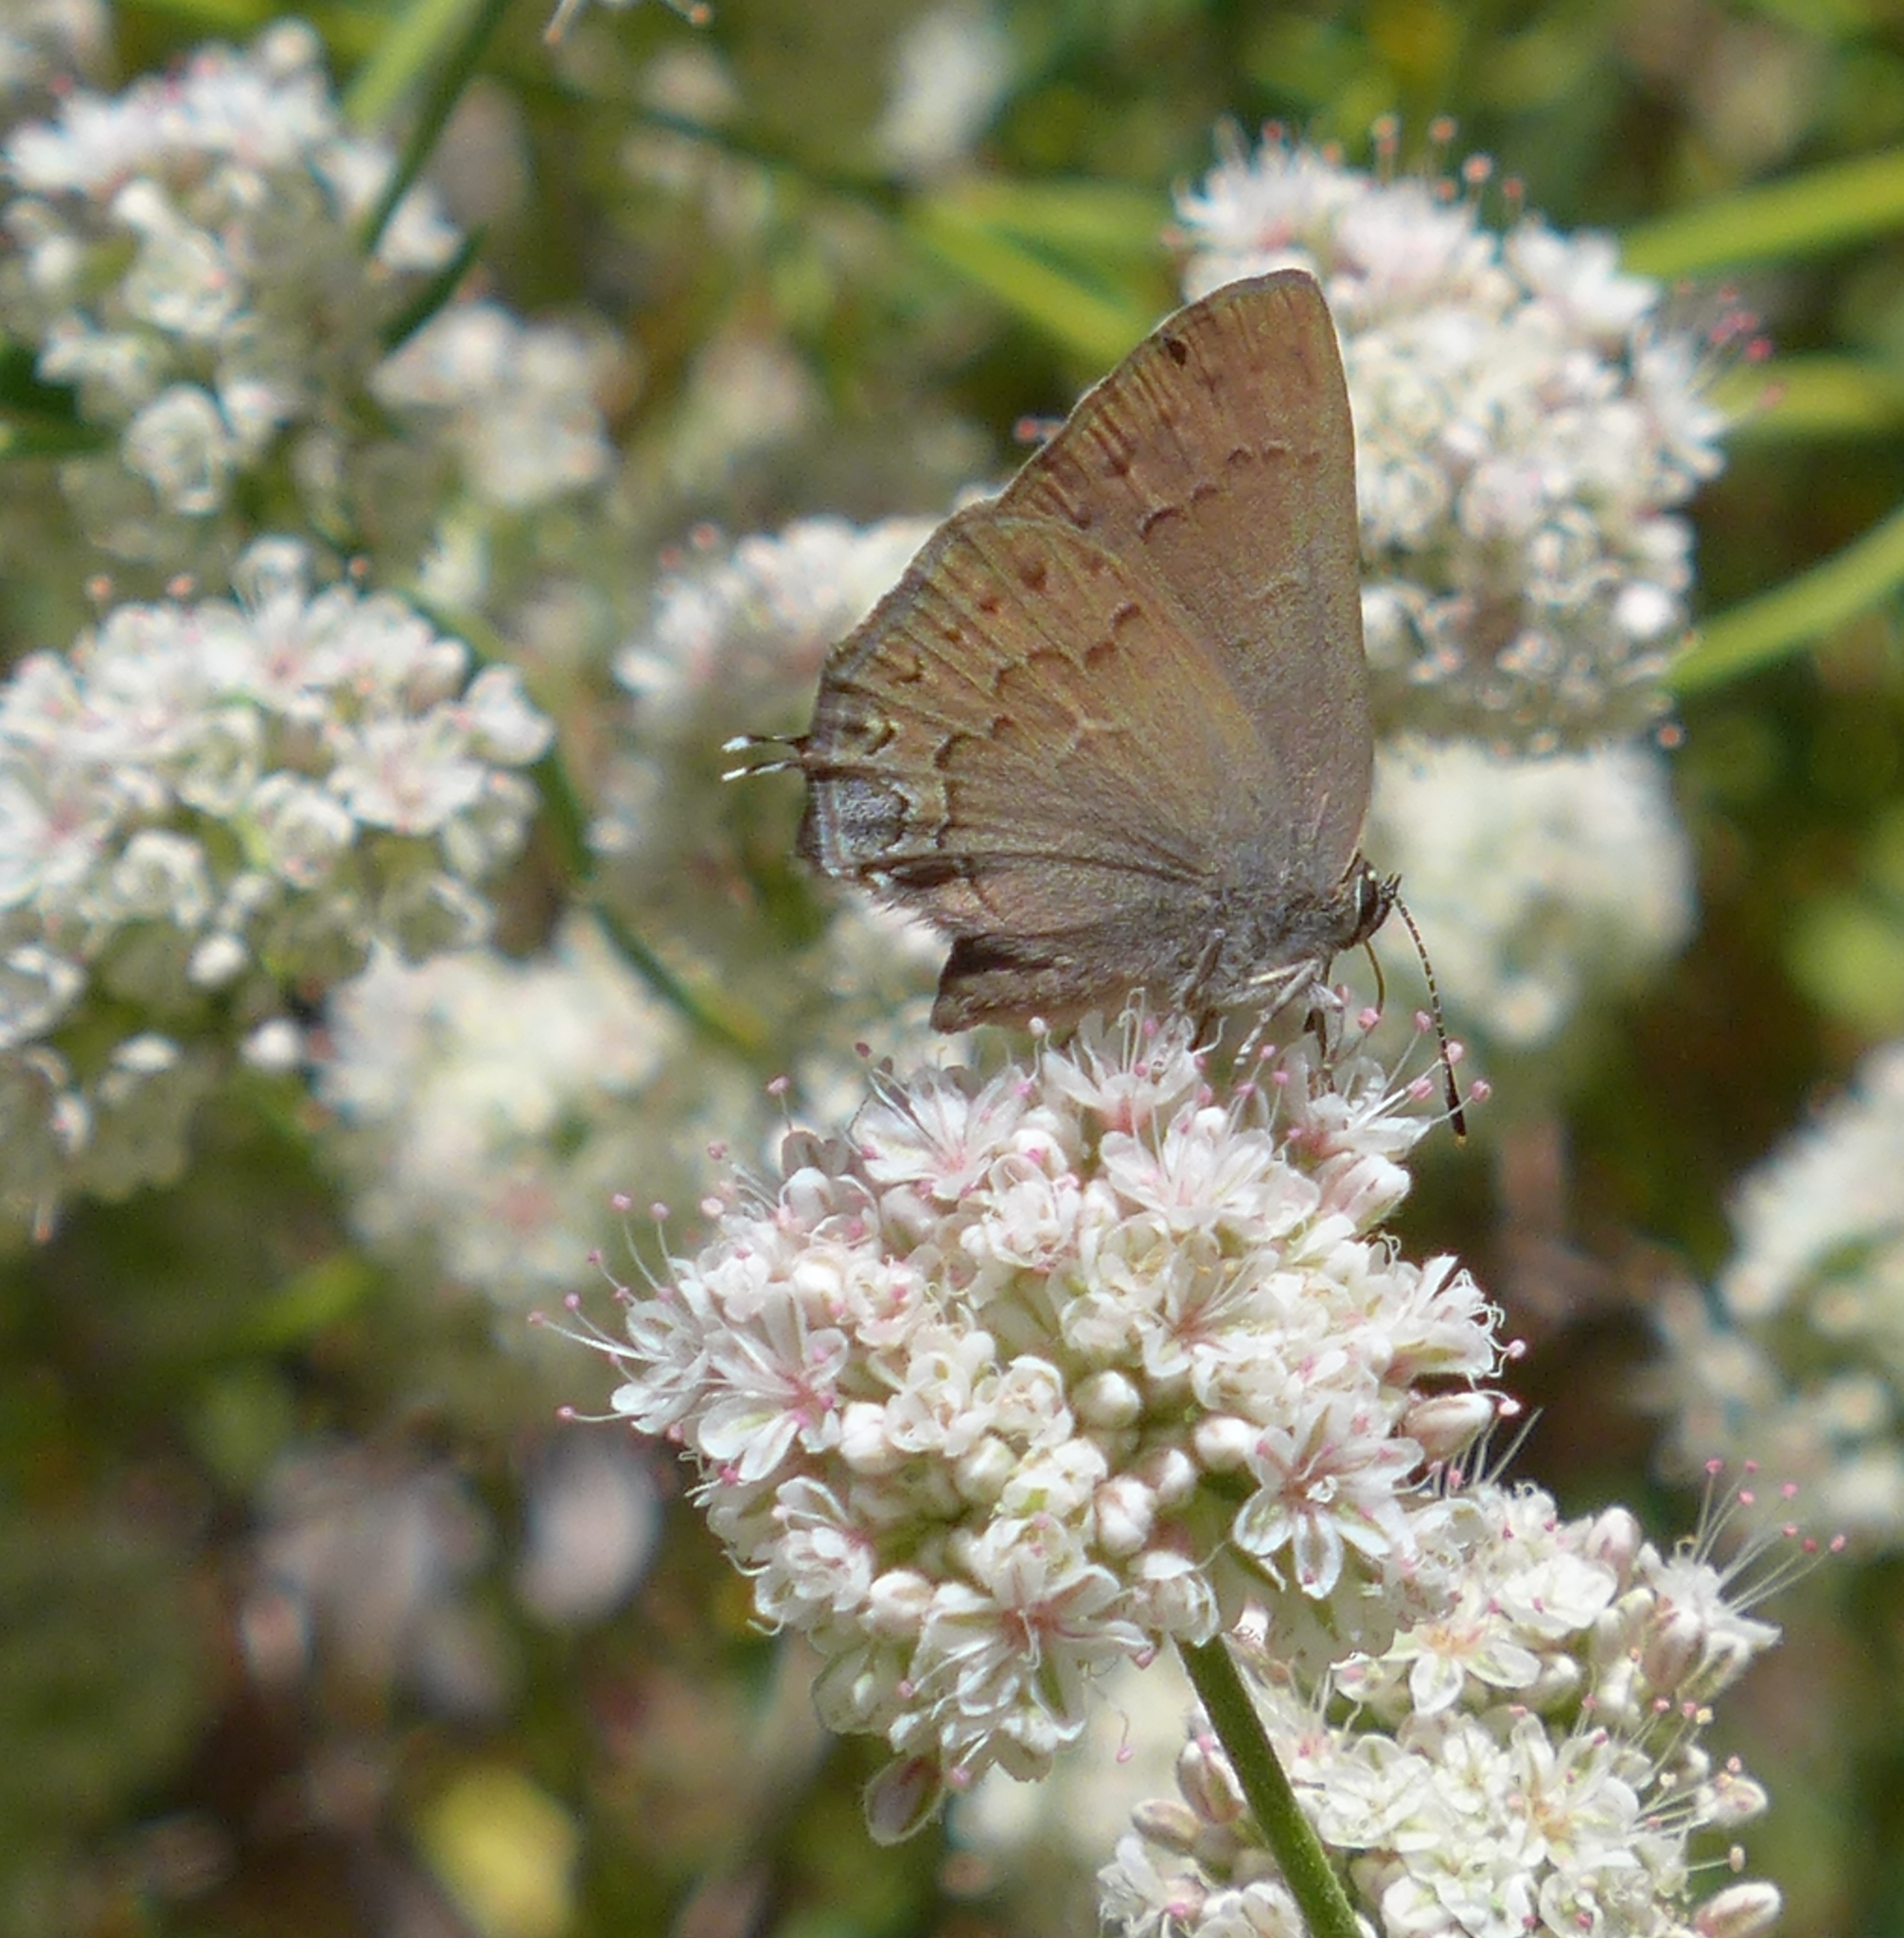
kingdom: Animalia
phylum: Arthropoda
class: Insecta
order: Lepidoptera
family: Lycaenidae
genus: Strymon
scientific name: Strymon saepium
